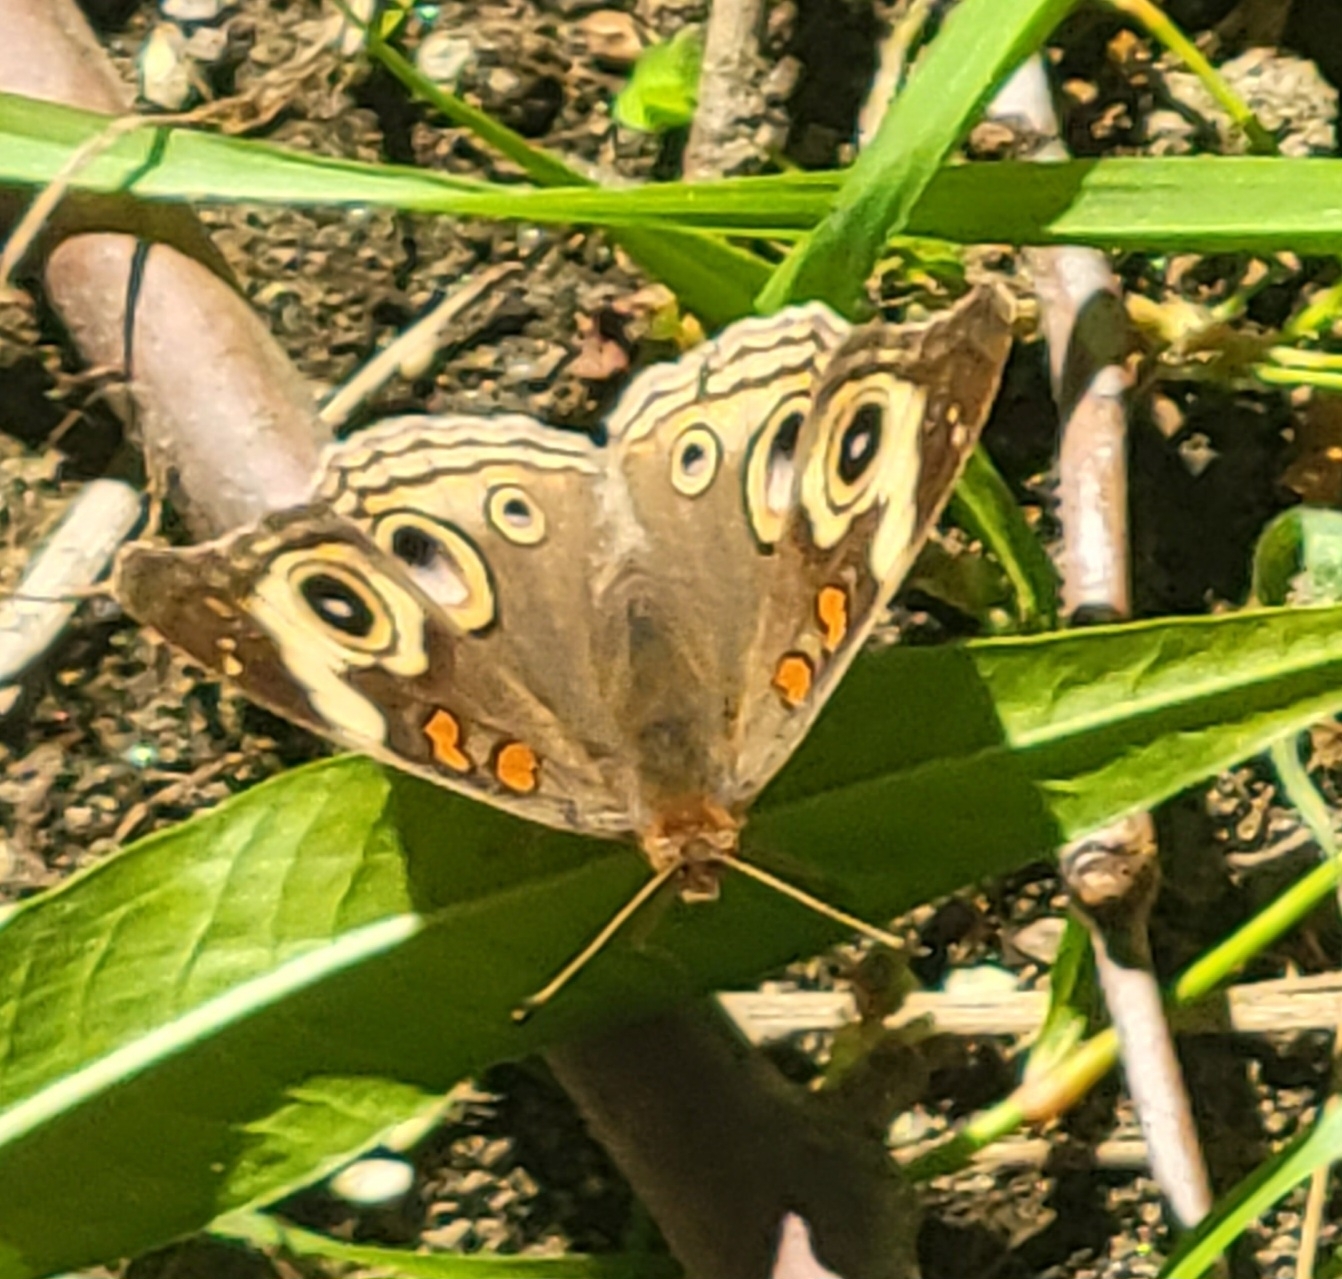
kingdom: Animalia
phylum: Arthropoda
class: Insecta
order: Lepidoptera
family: Nymphalidae
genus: Junonia
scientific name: Junonia grisea
